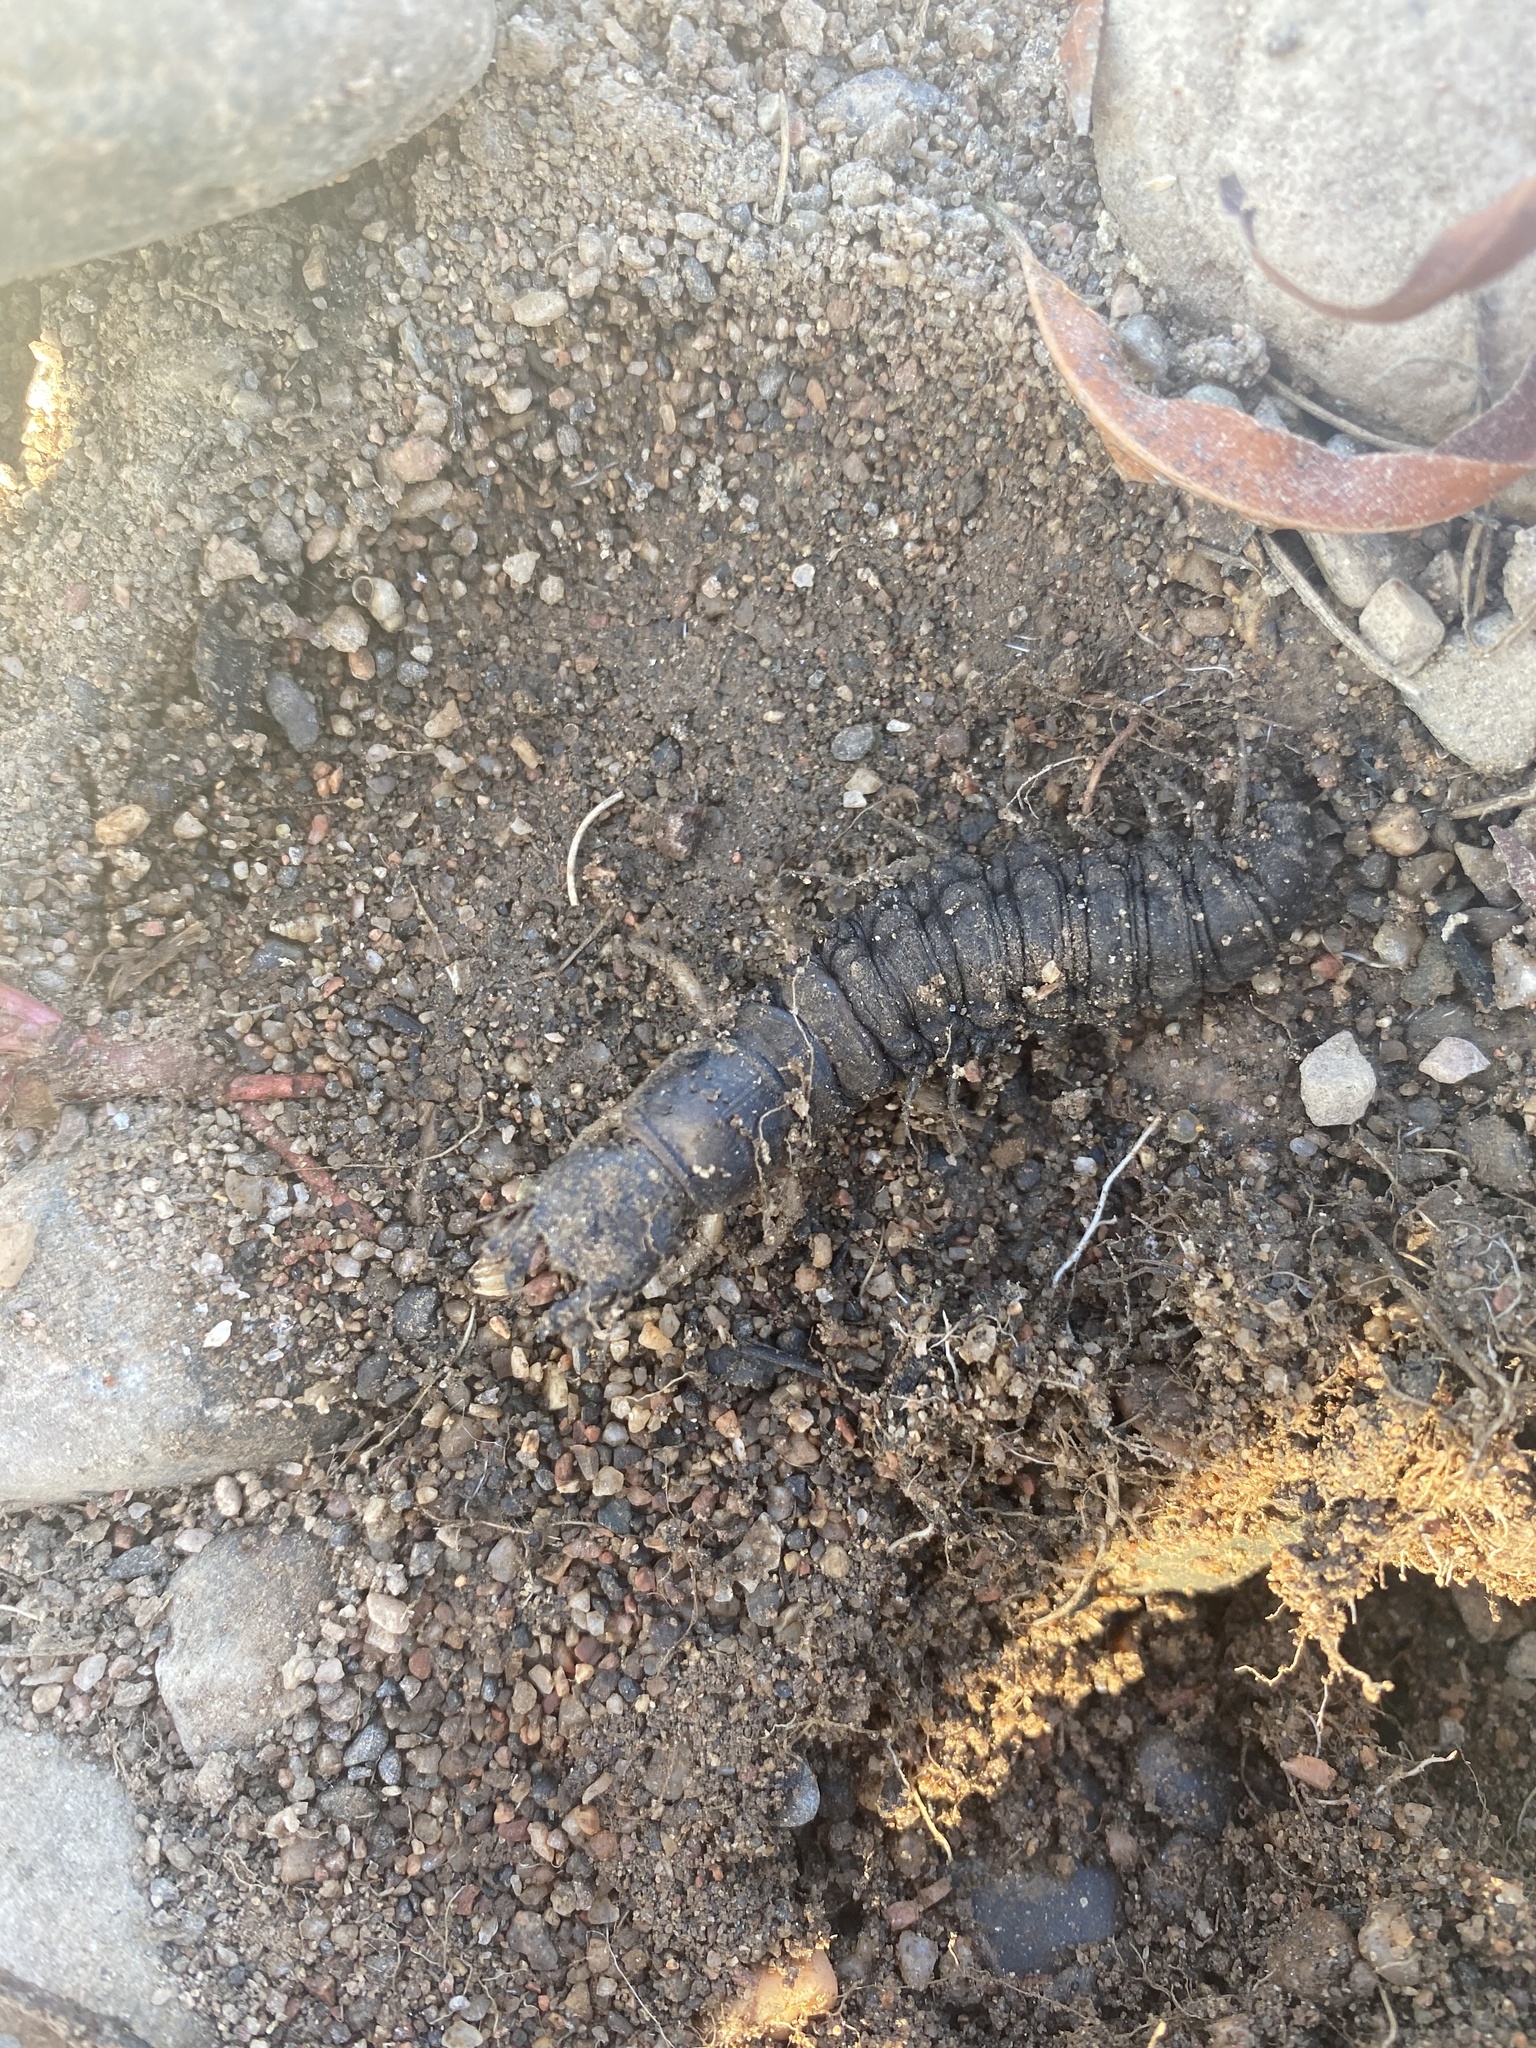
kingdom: Animalia
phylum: Arthropoda
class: Insecta
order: Megaloptera
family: Corydalidae
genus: Corydalus
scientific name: Corydalus texanus
